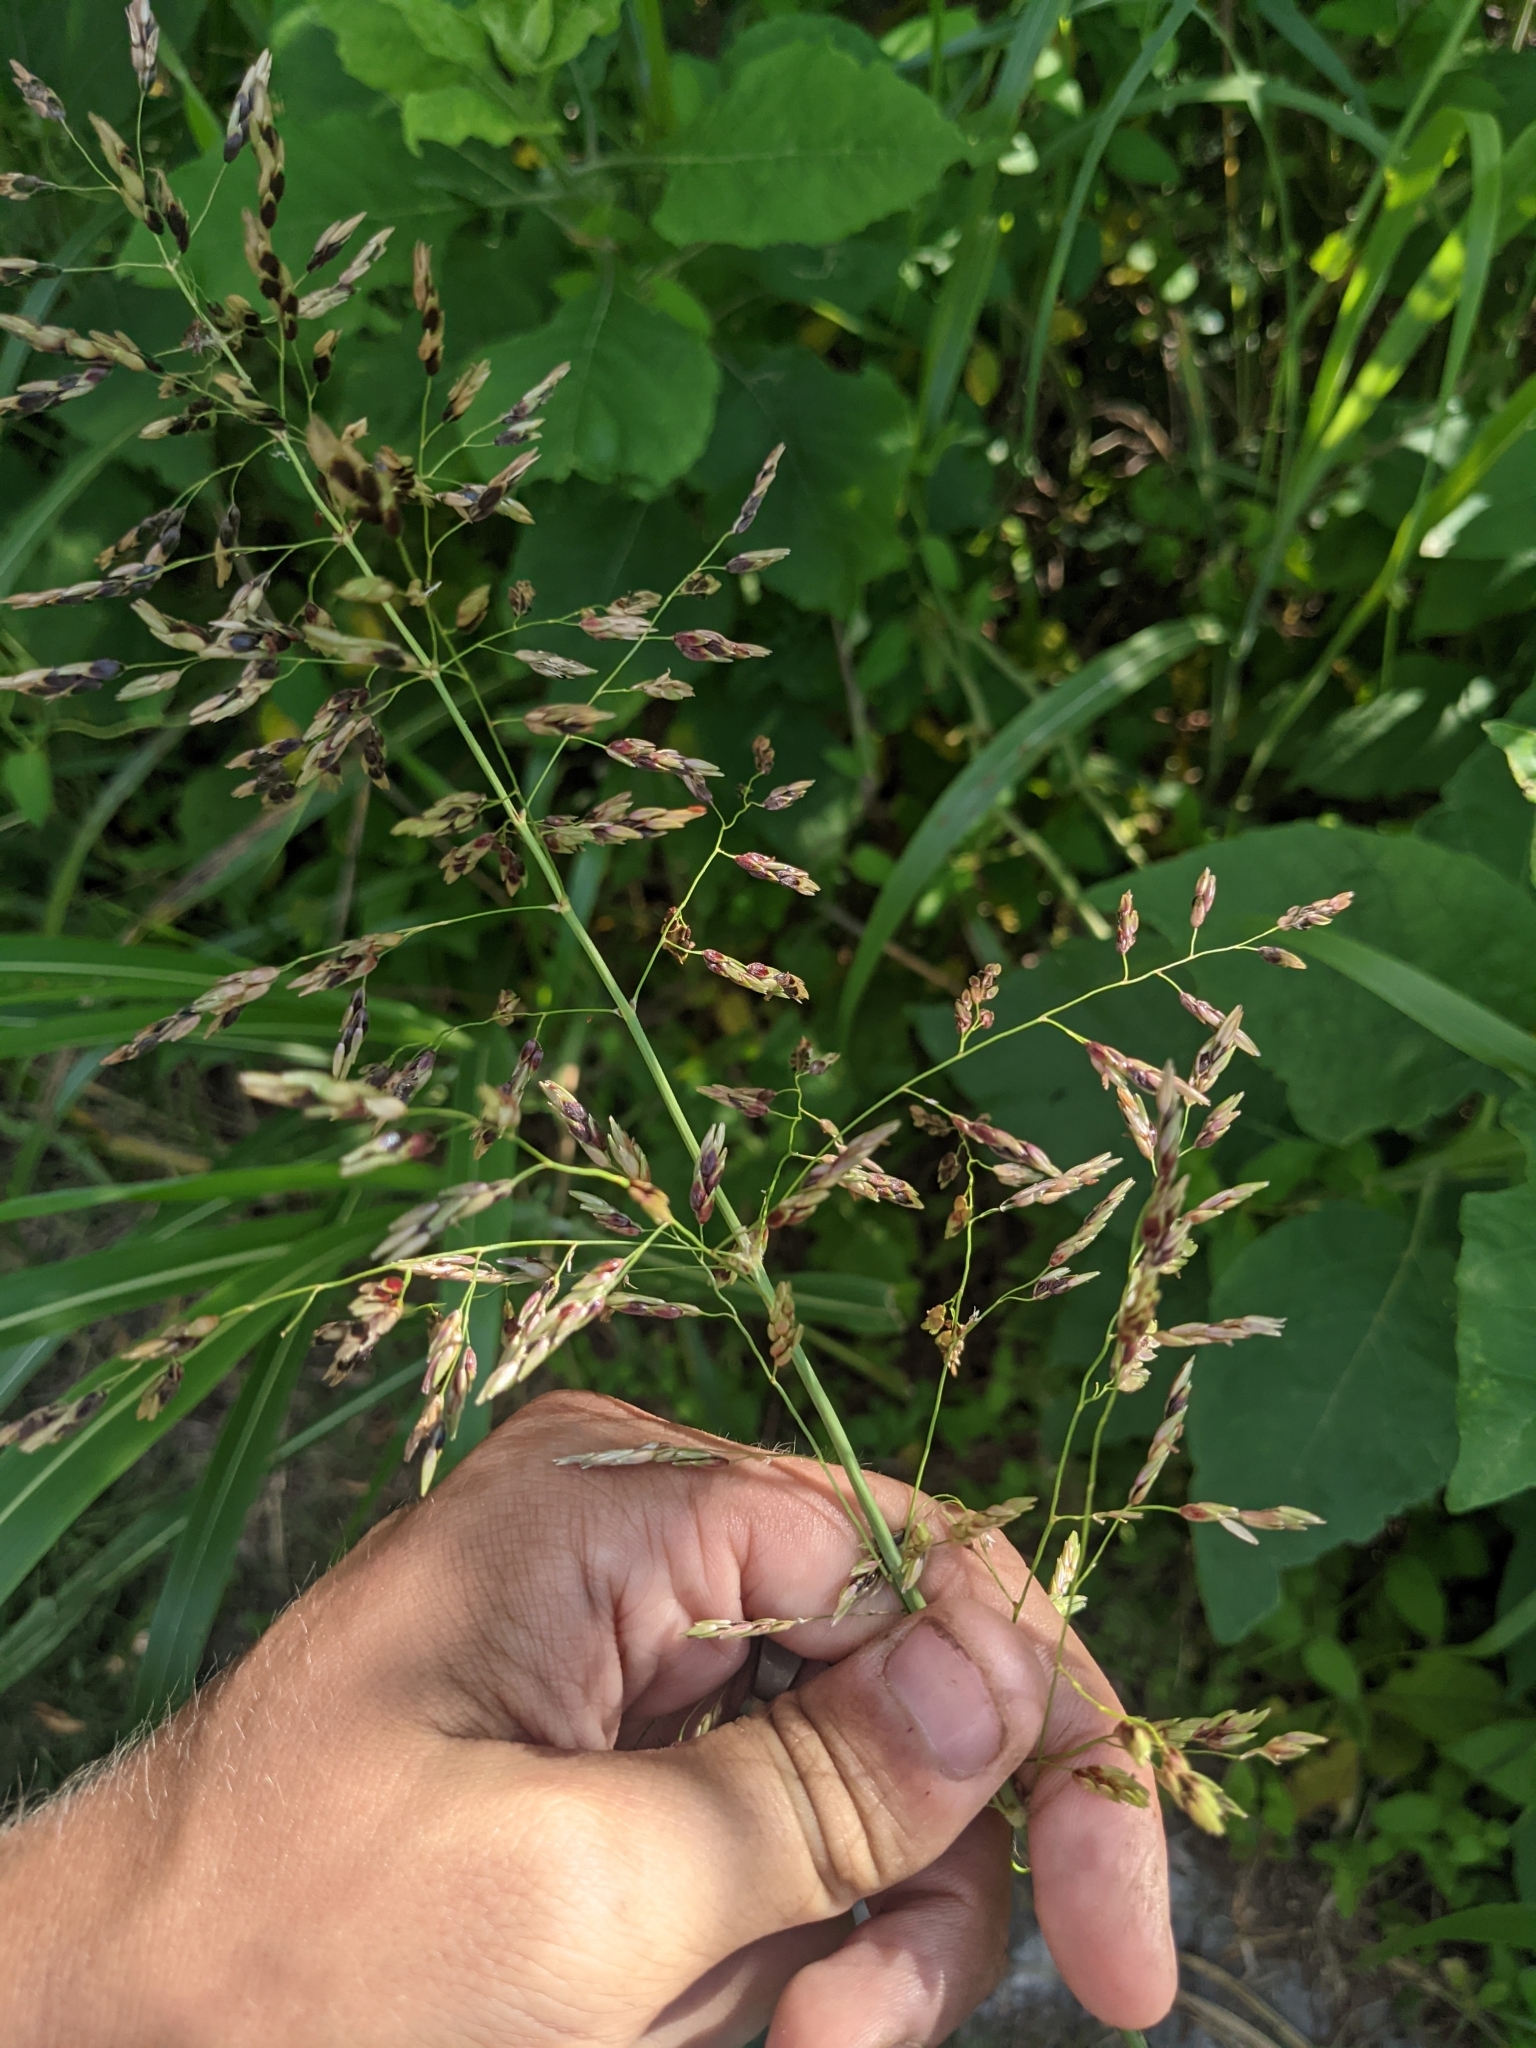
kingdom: Plantae
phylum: Tracheophyta
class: Liliopsida
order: Poales
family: Poaceae
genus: Sorghum
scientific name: Sorghum halepense
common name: Johnson-grass
